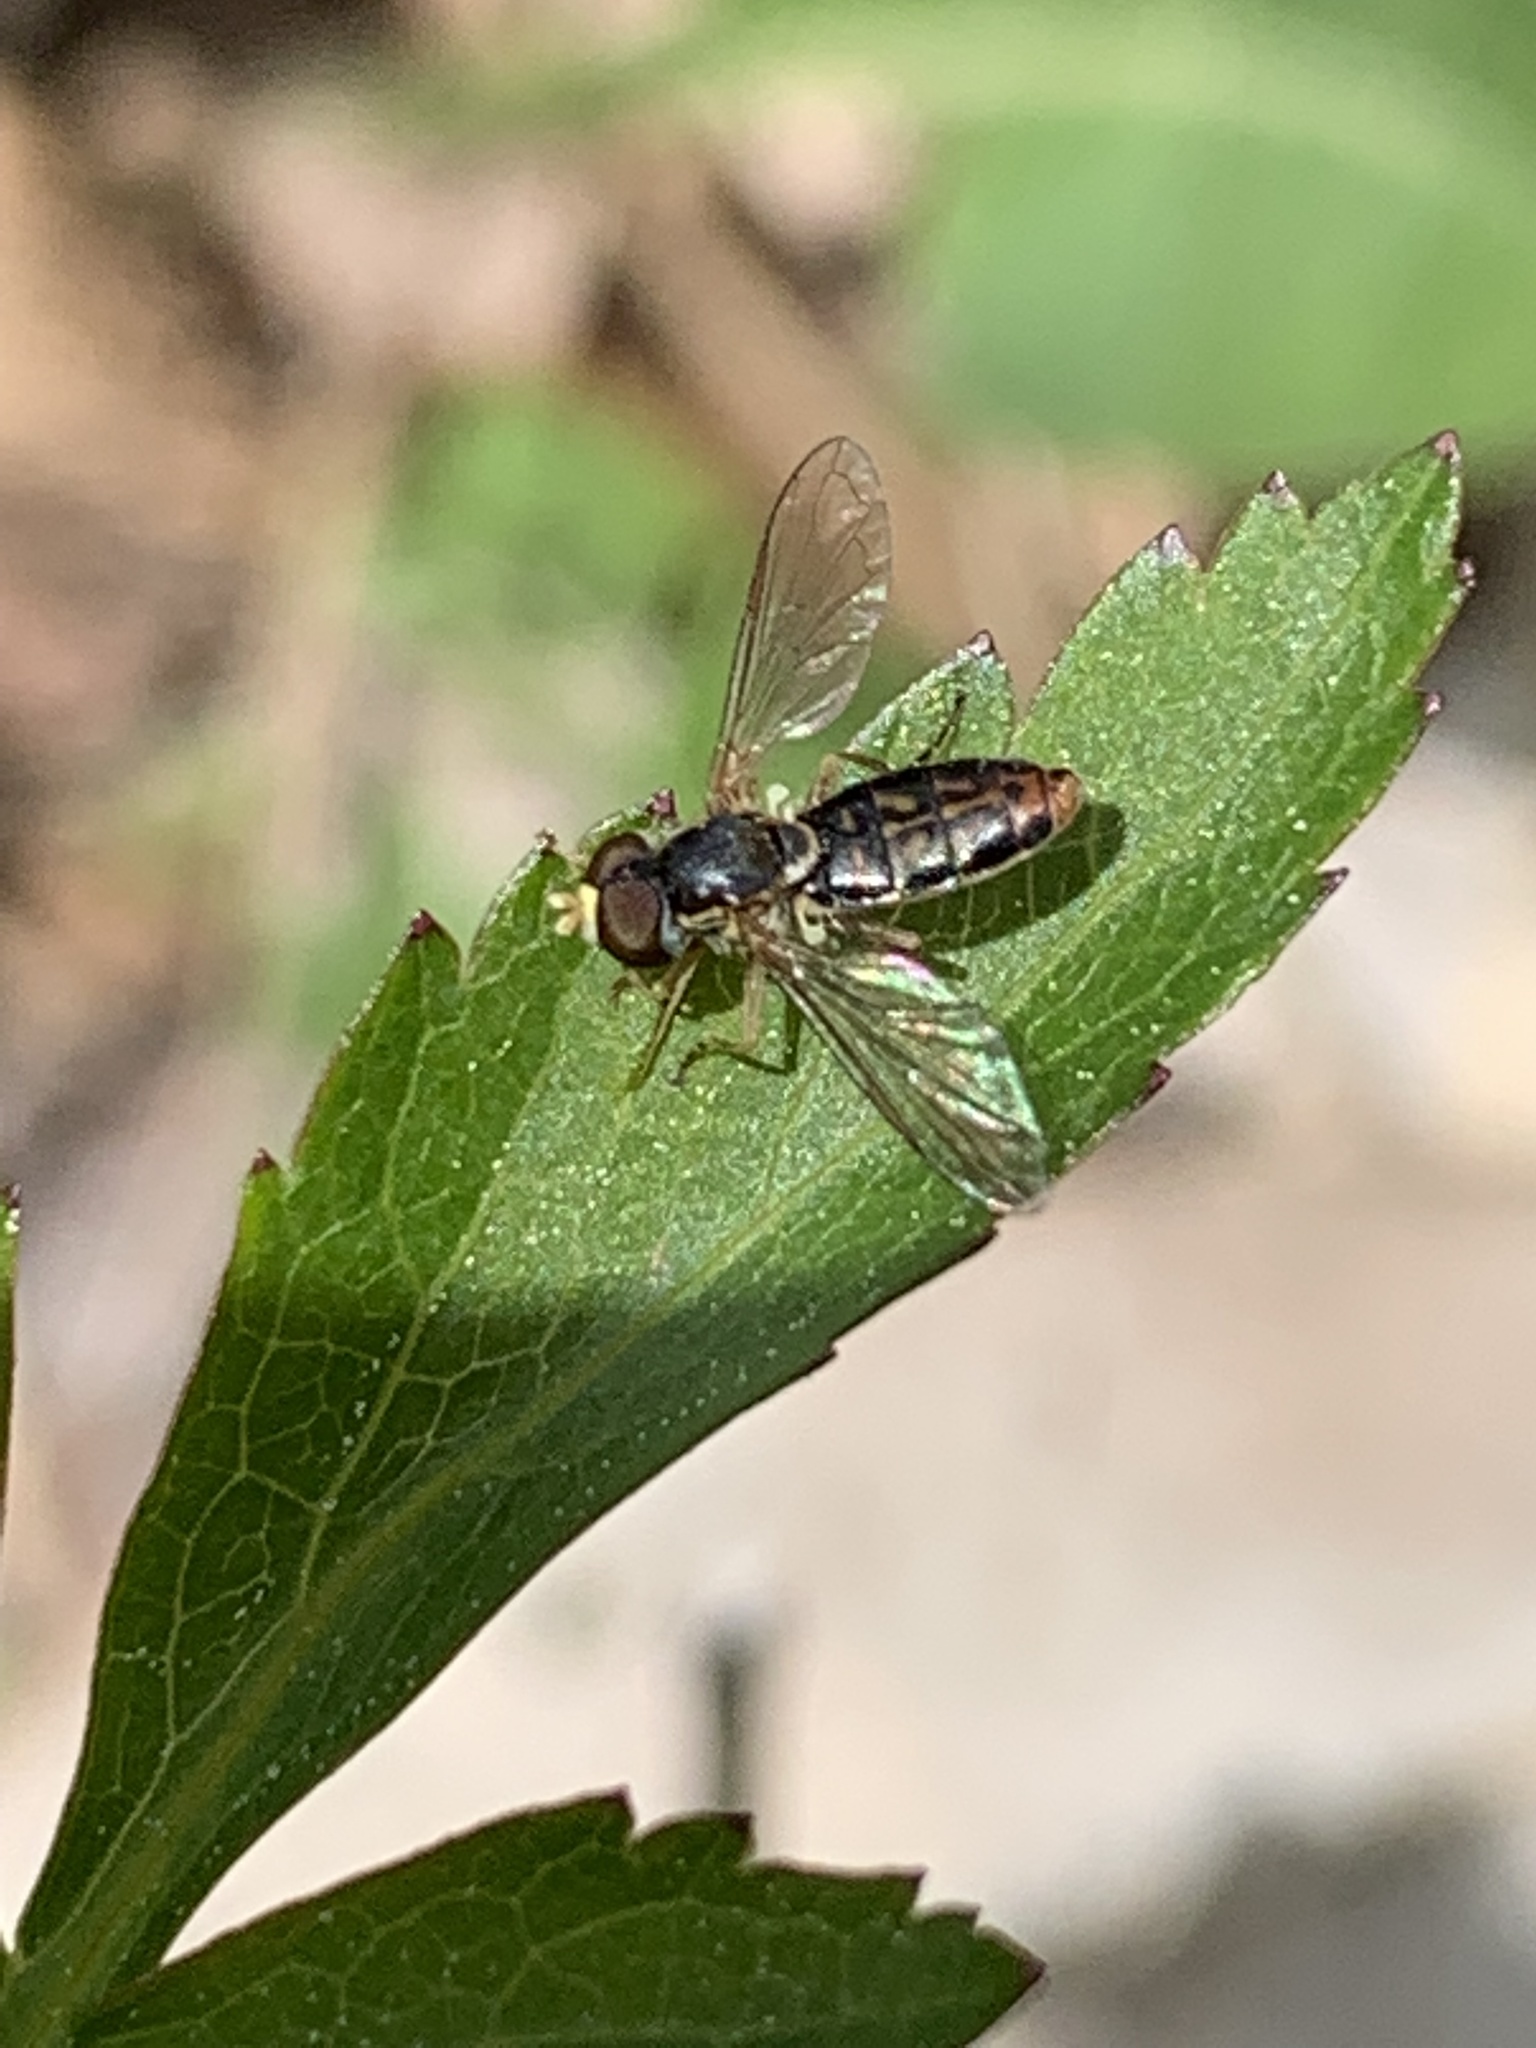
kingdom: Animalia
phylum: Arthropoda
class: Insecta
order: Diptera
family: Syrphidae
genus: Toxomerus
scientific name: Toxomerus marginatus
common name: Syrphid fly
